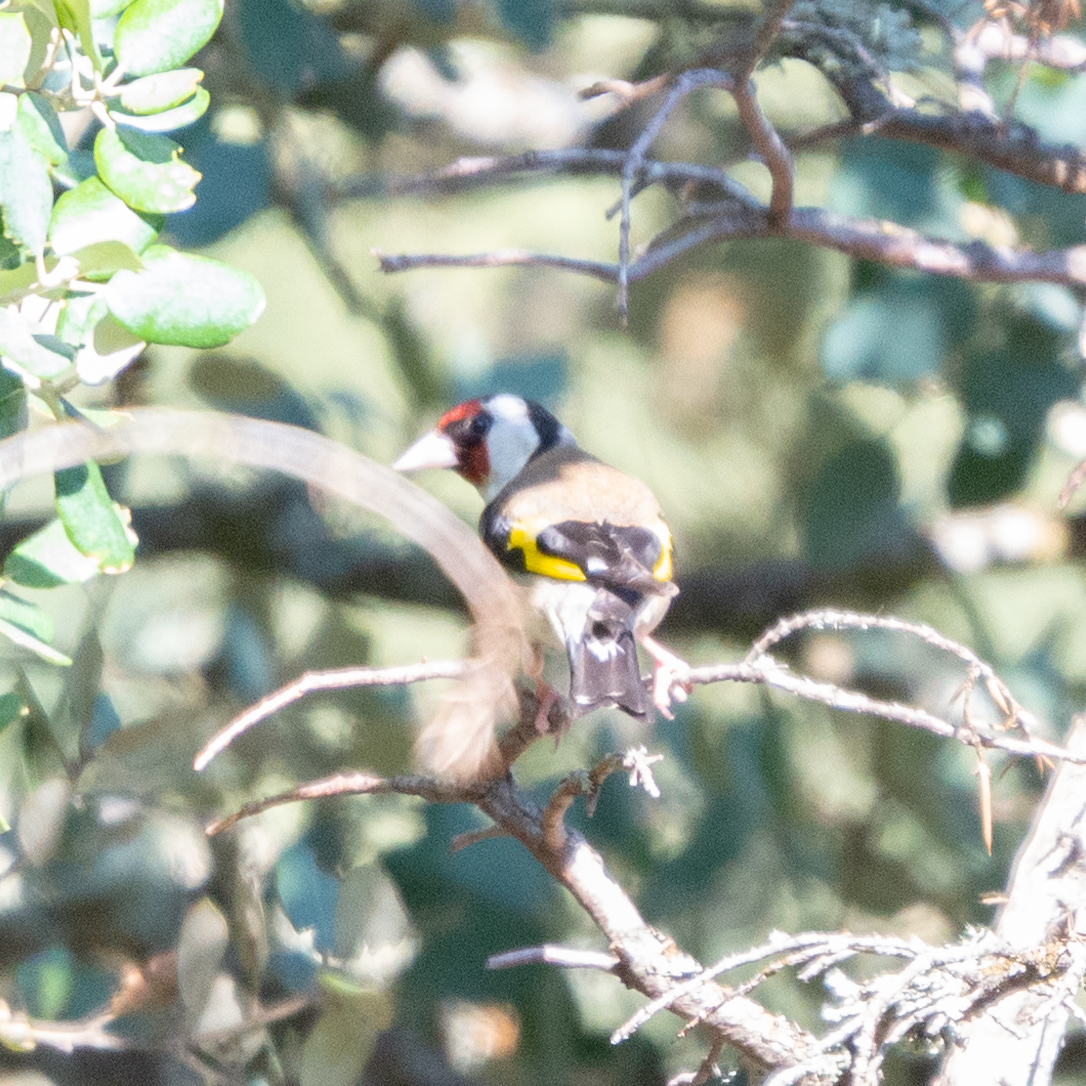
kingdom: Animalia
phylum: Chordata
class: Aves
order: Passeriformes
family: Fringillidae
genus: Carduelis
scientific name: Carduelis carduelis
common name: European goldfinch
